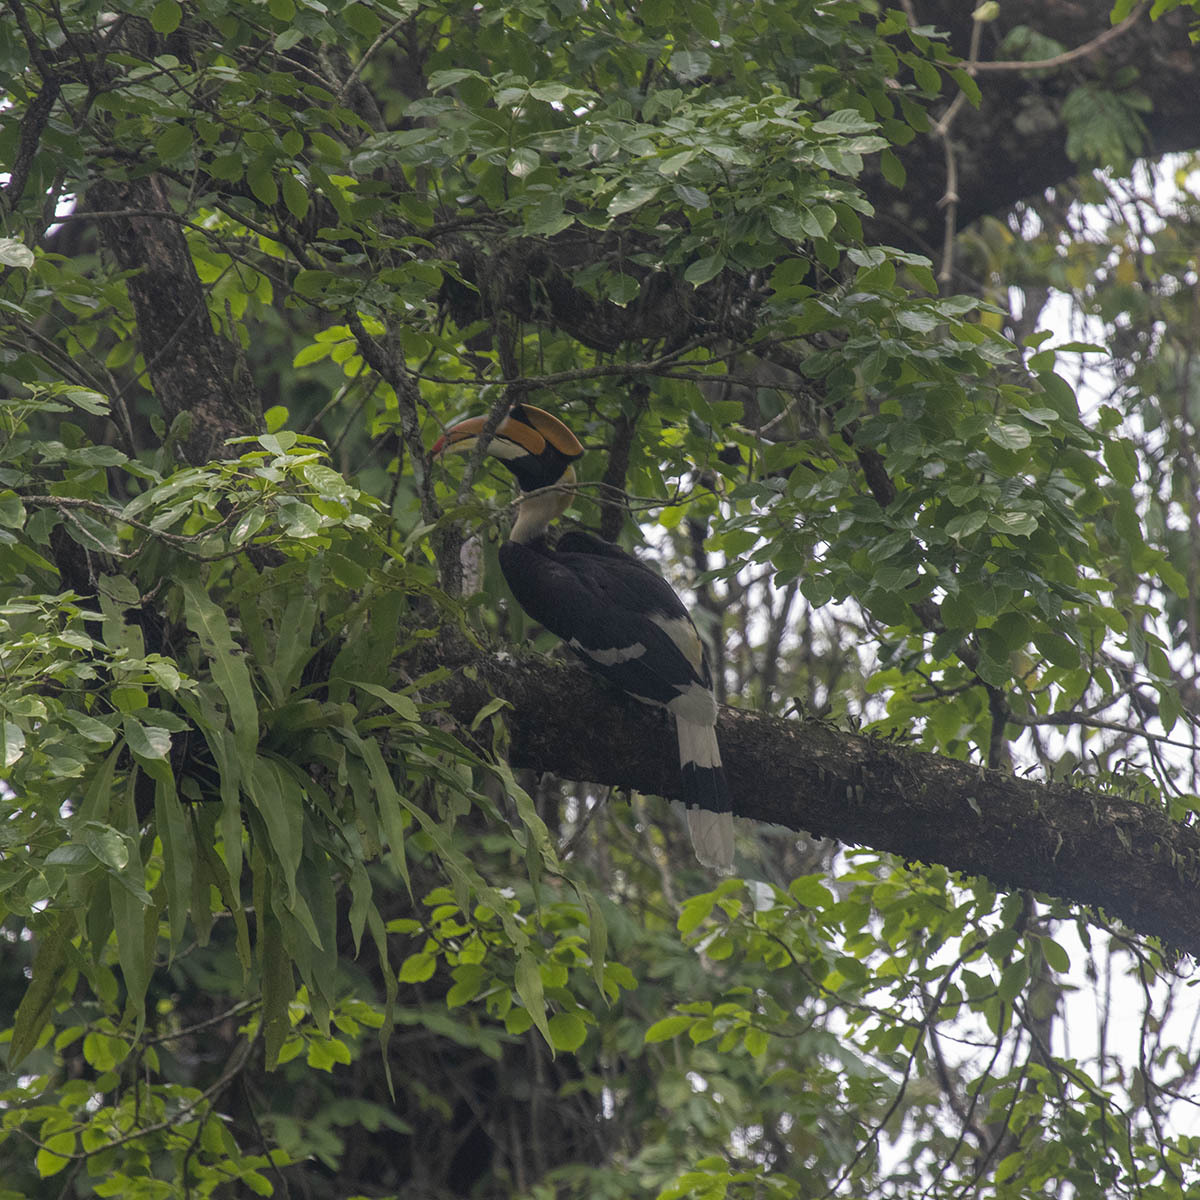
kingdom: Animalia
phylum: Chordata
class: Aves
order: Bucerotiformes
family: Bucerotidae
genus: Buceros
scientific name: Buceros bicornis
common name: Great hornbill
